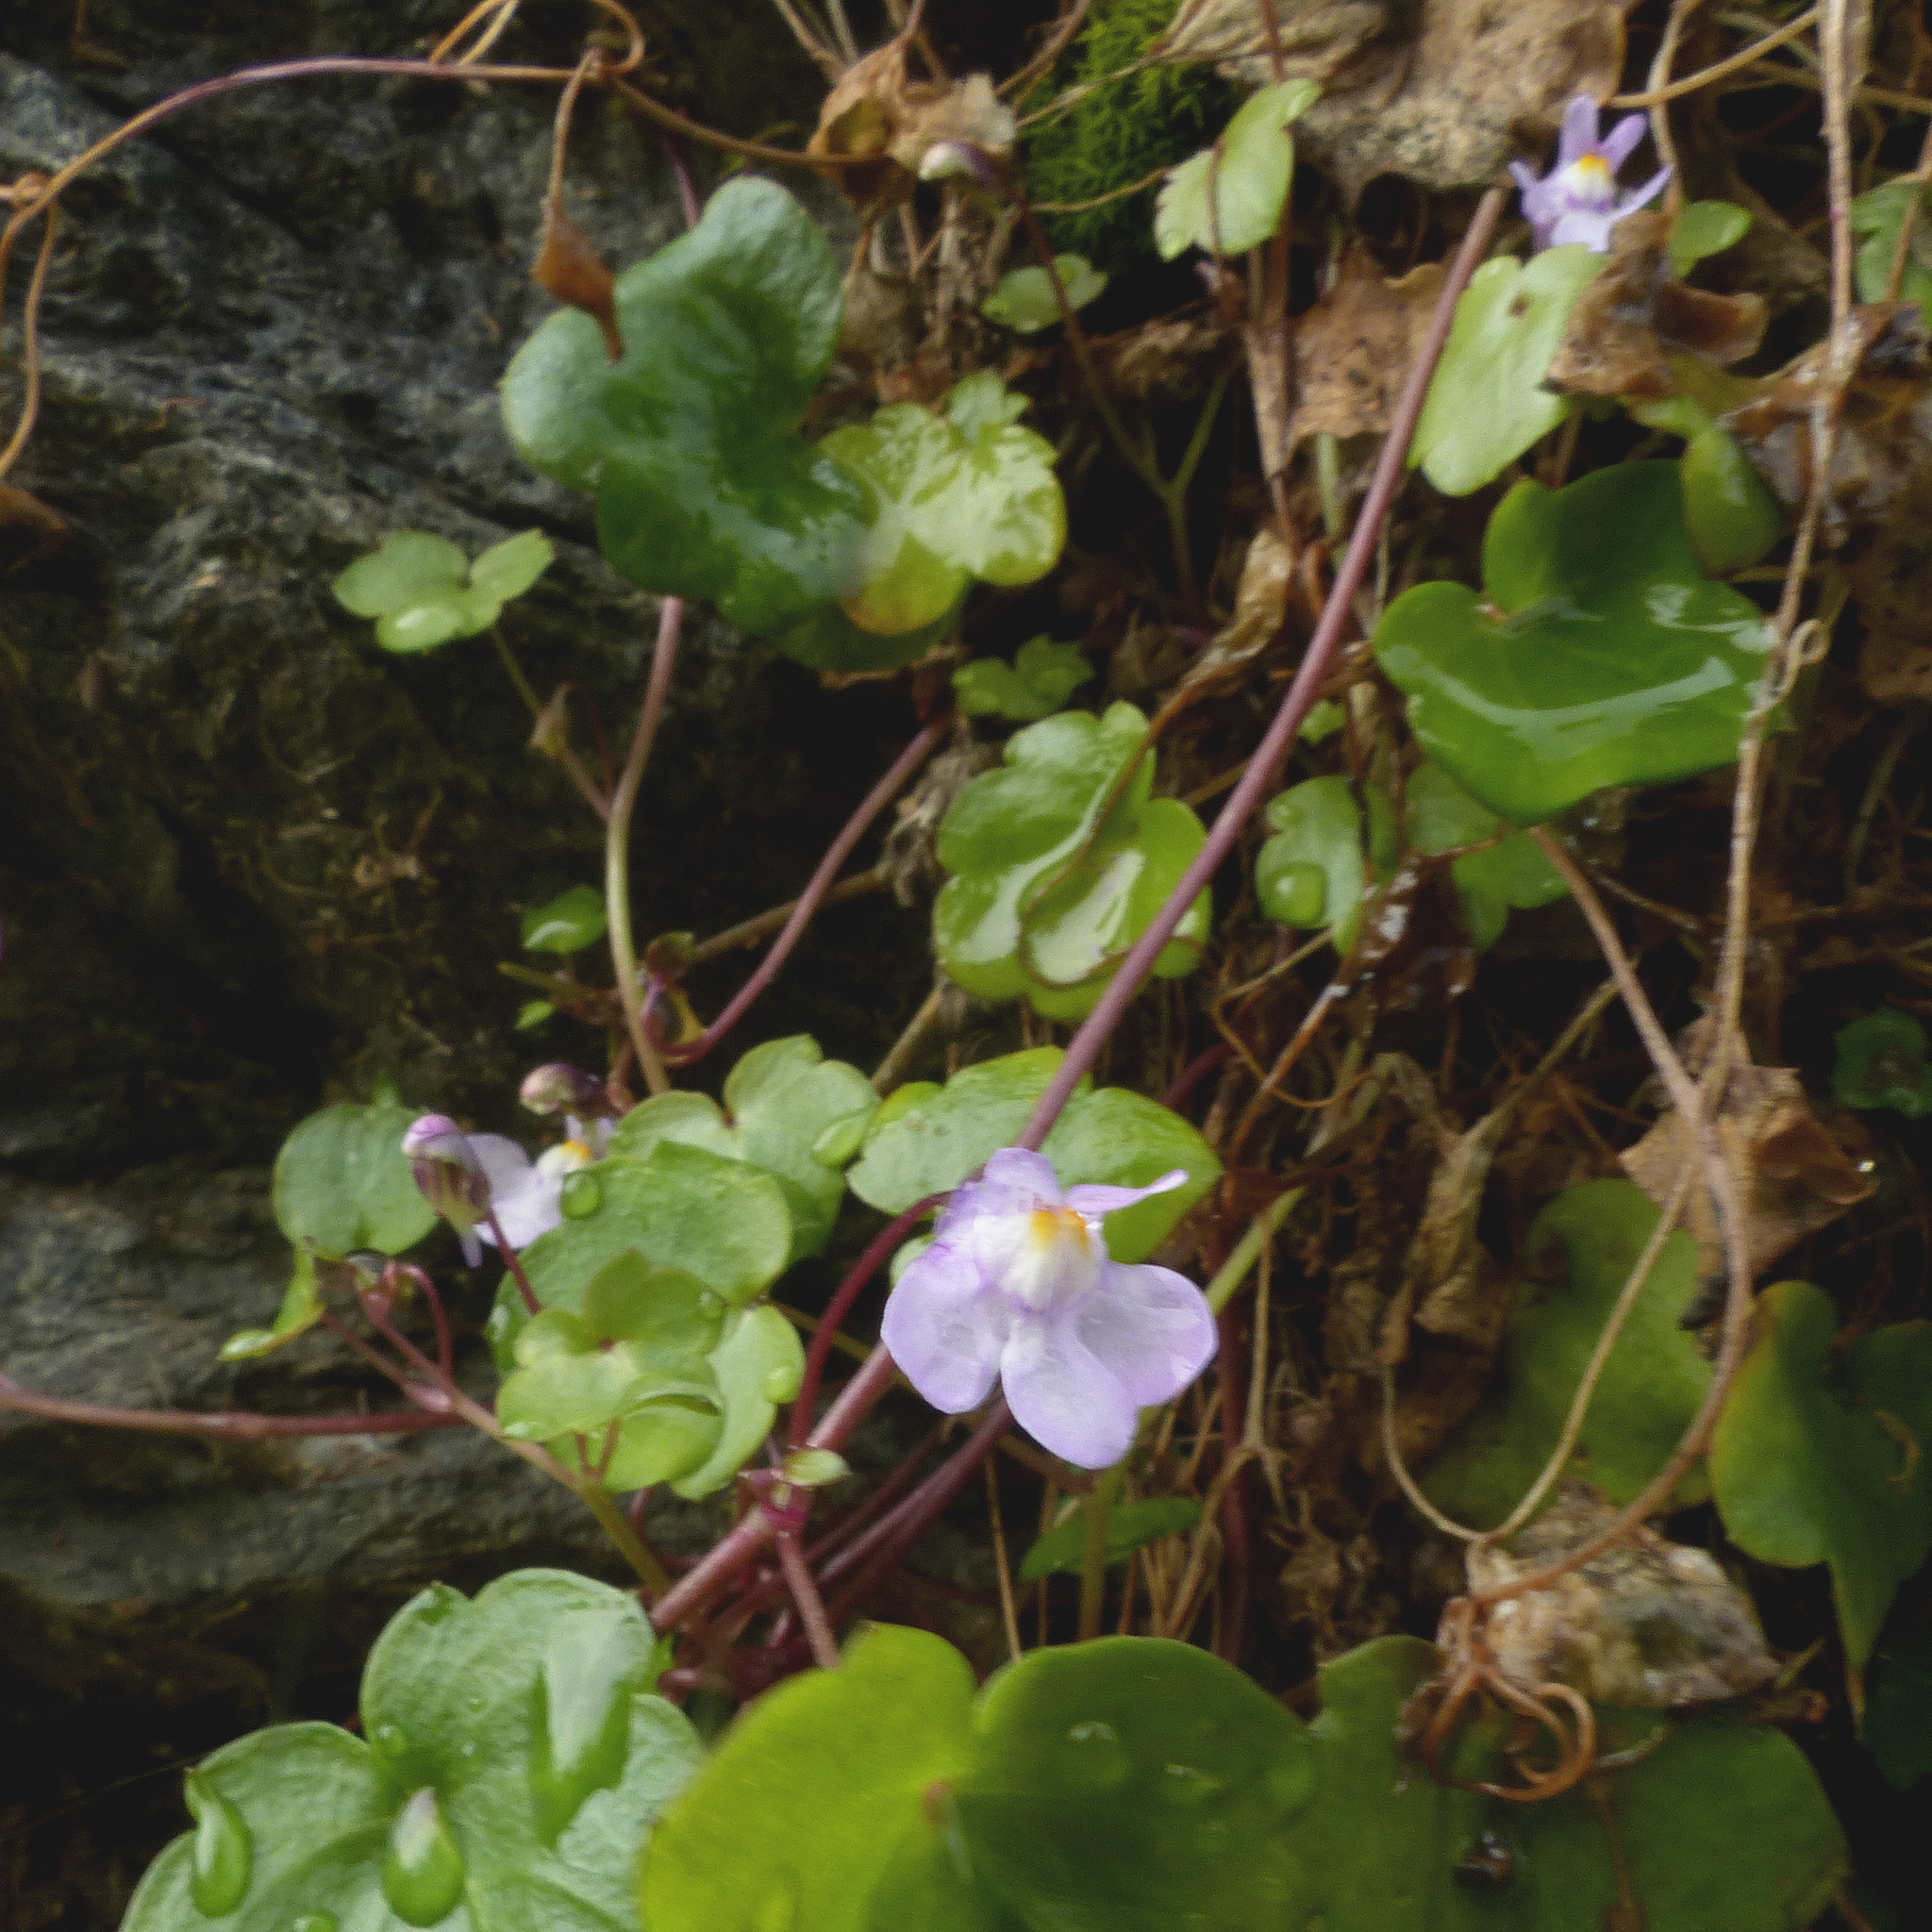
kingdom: Plantae
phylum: Tracheophyta
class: Magnoliopsida
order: Lamiales
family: Plantaginaceae
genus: Cymbalaria
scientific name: Cymbalaria muralis
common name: Ivy-leaved toadflax
